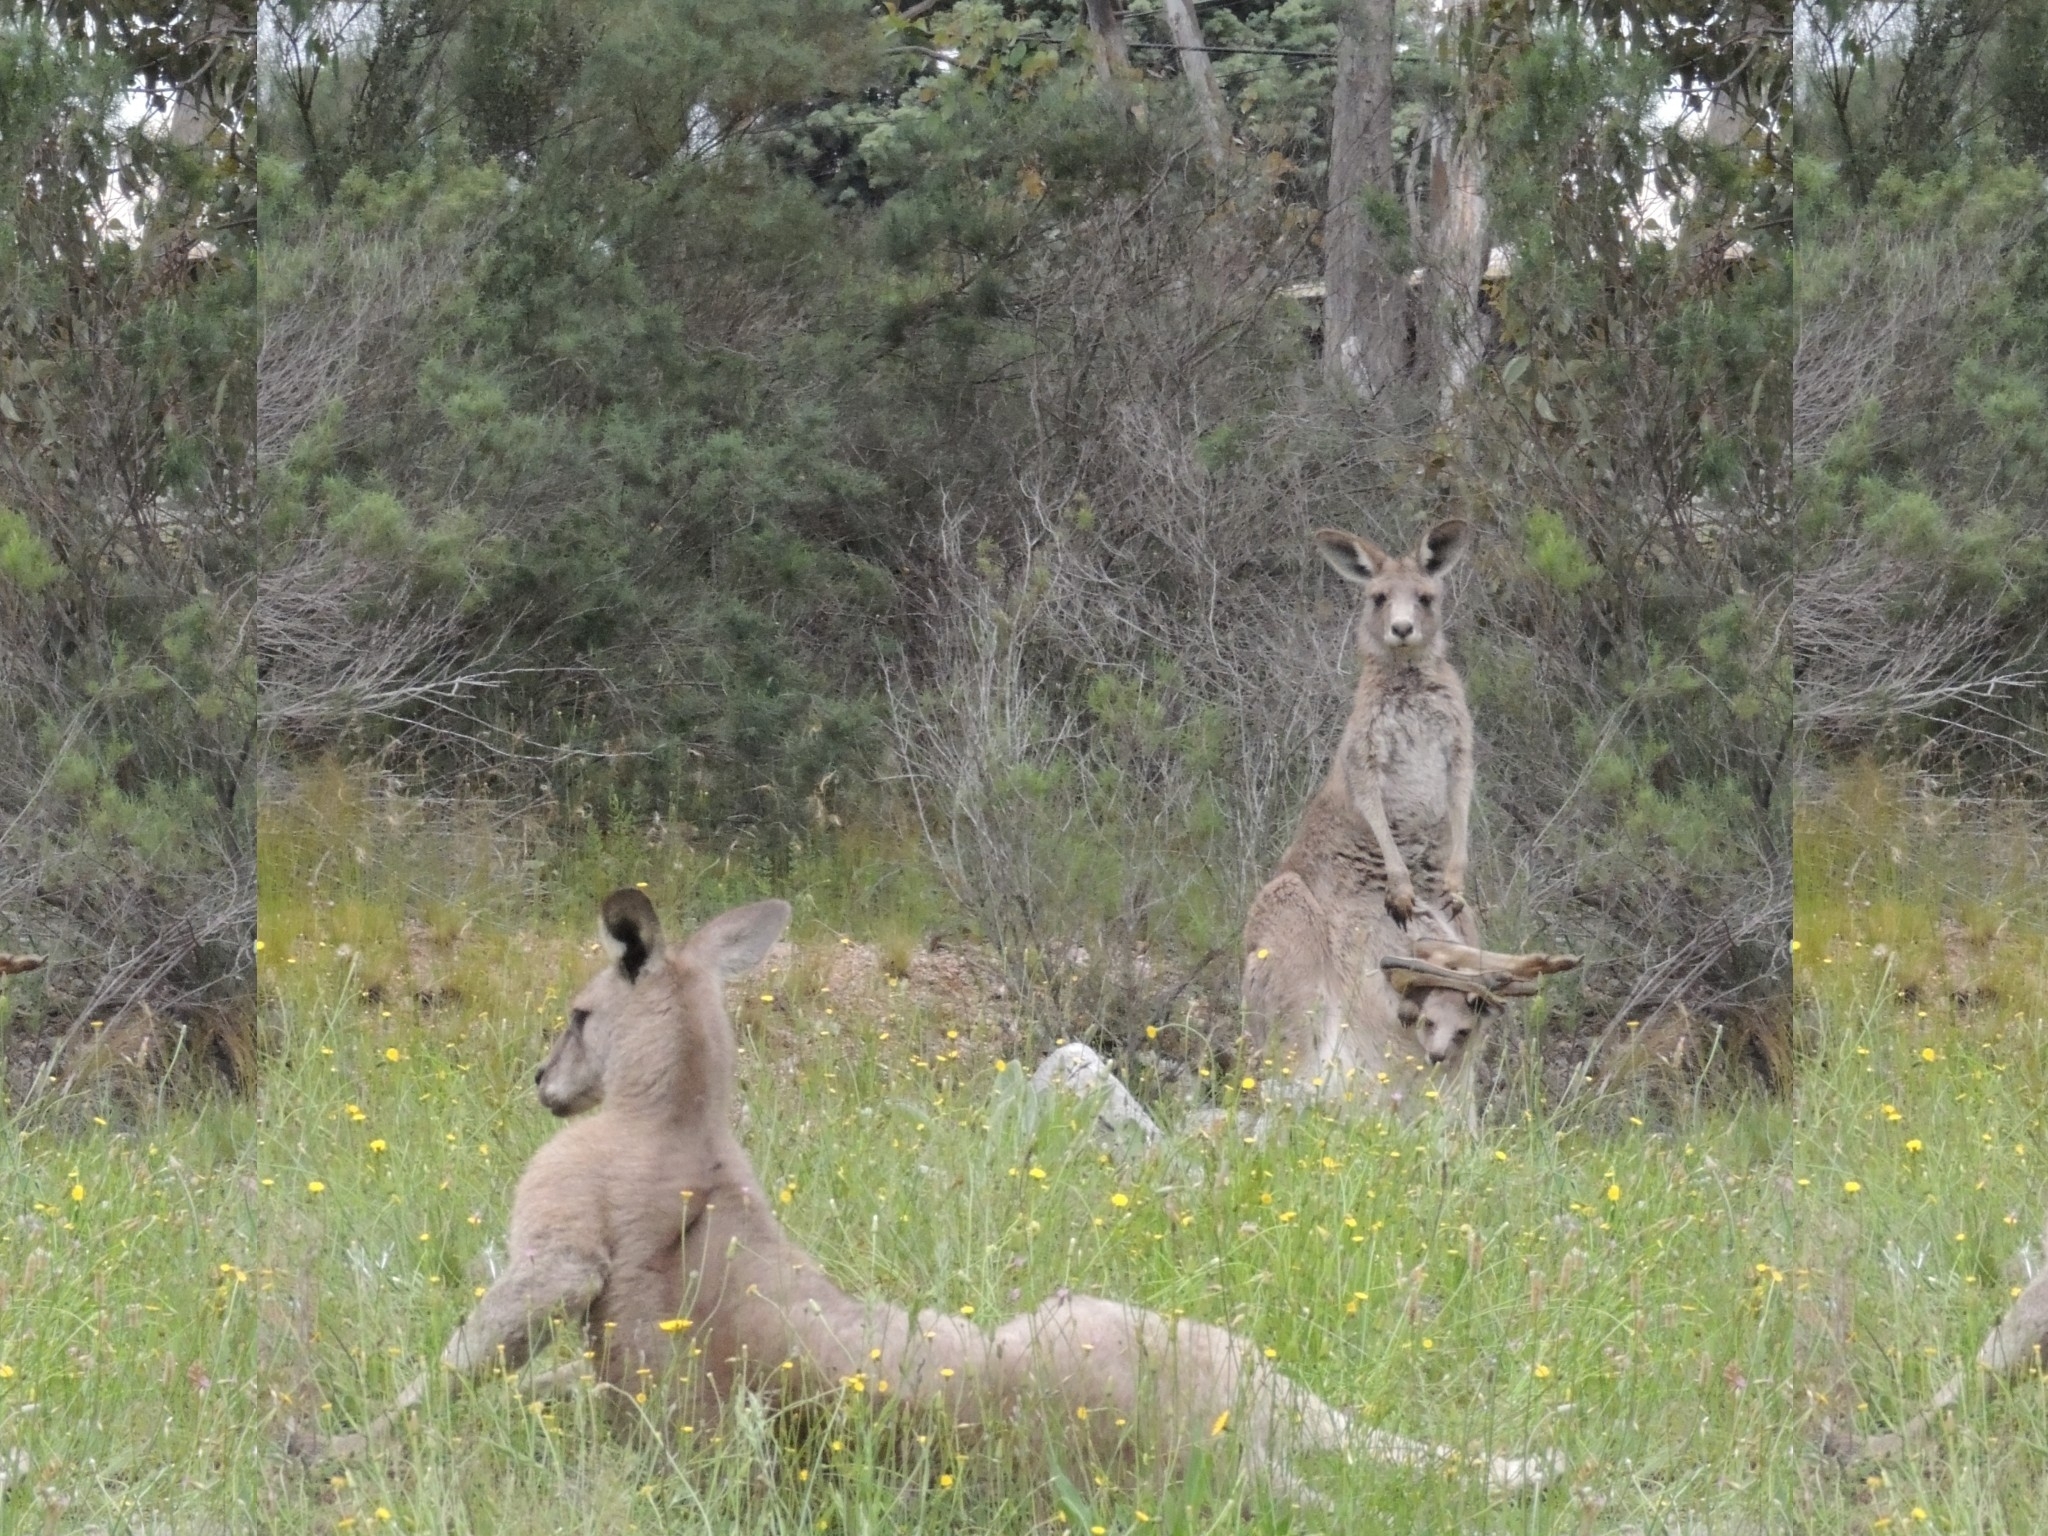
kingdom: Animalia
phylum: Chordata
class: Mammalia
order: Diprotodontia
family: Macropodidae
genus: Macropus
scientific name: Macropus giganteus
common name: Eastern grey kangaroo
